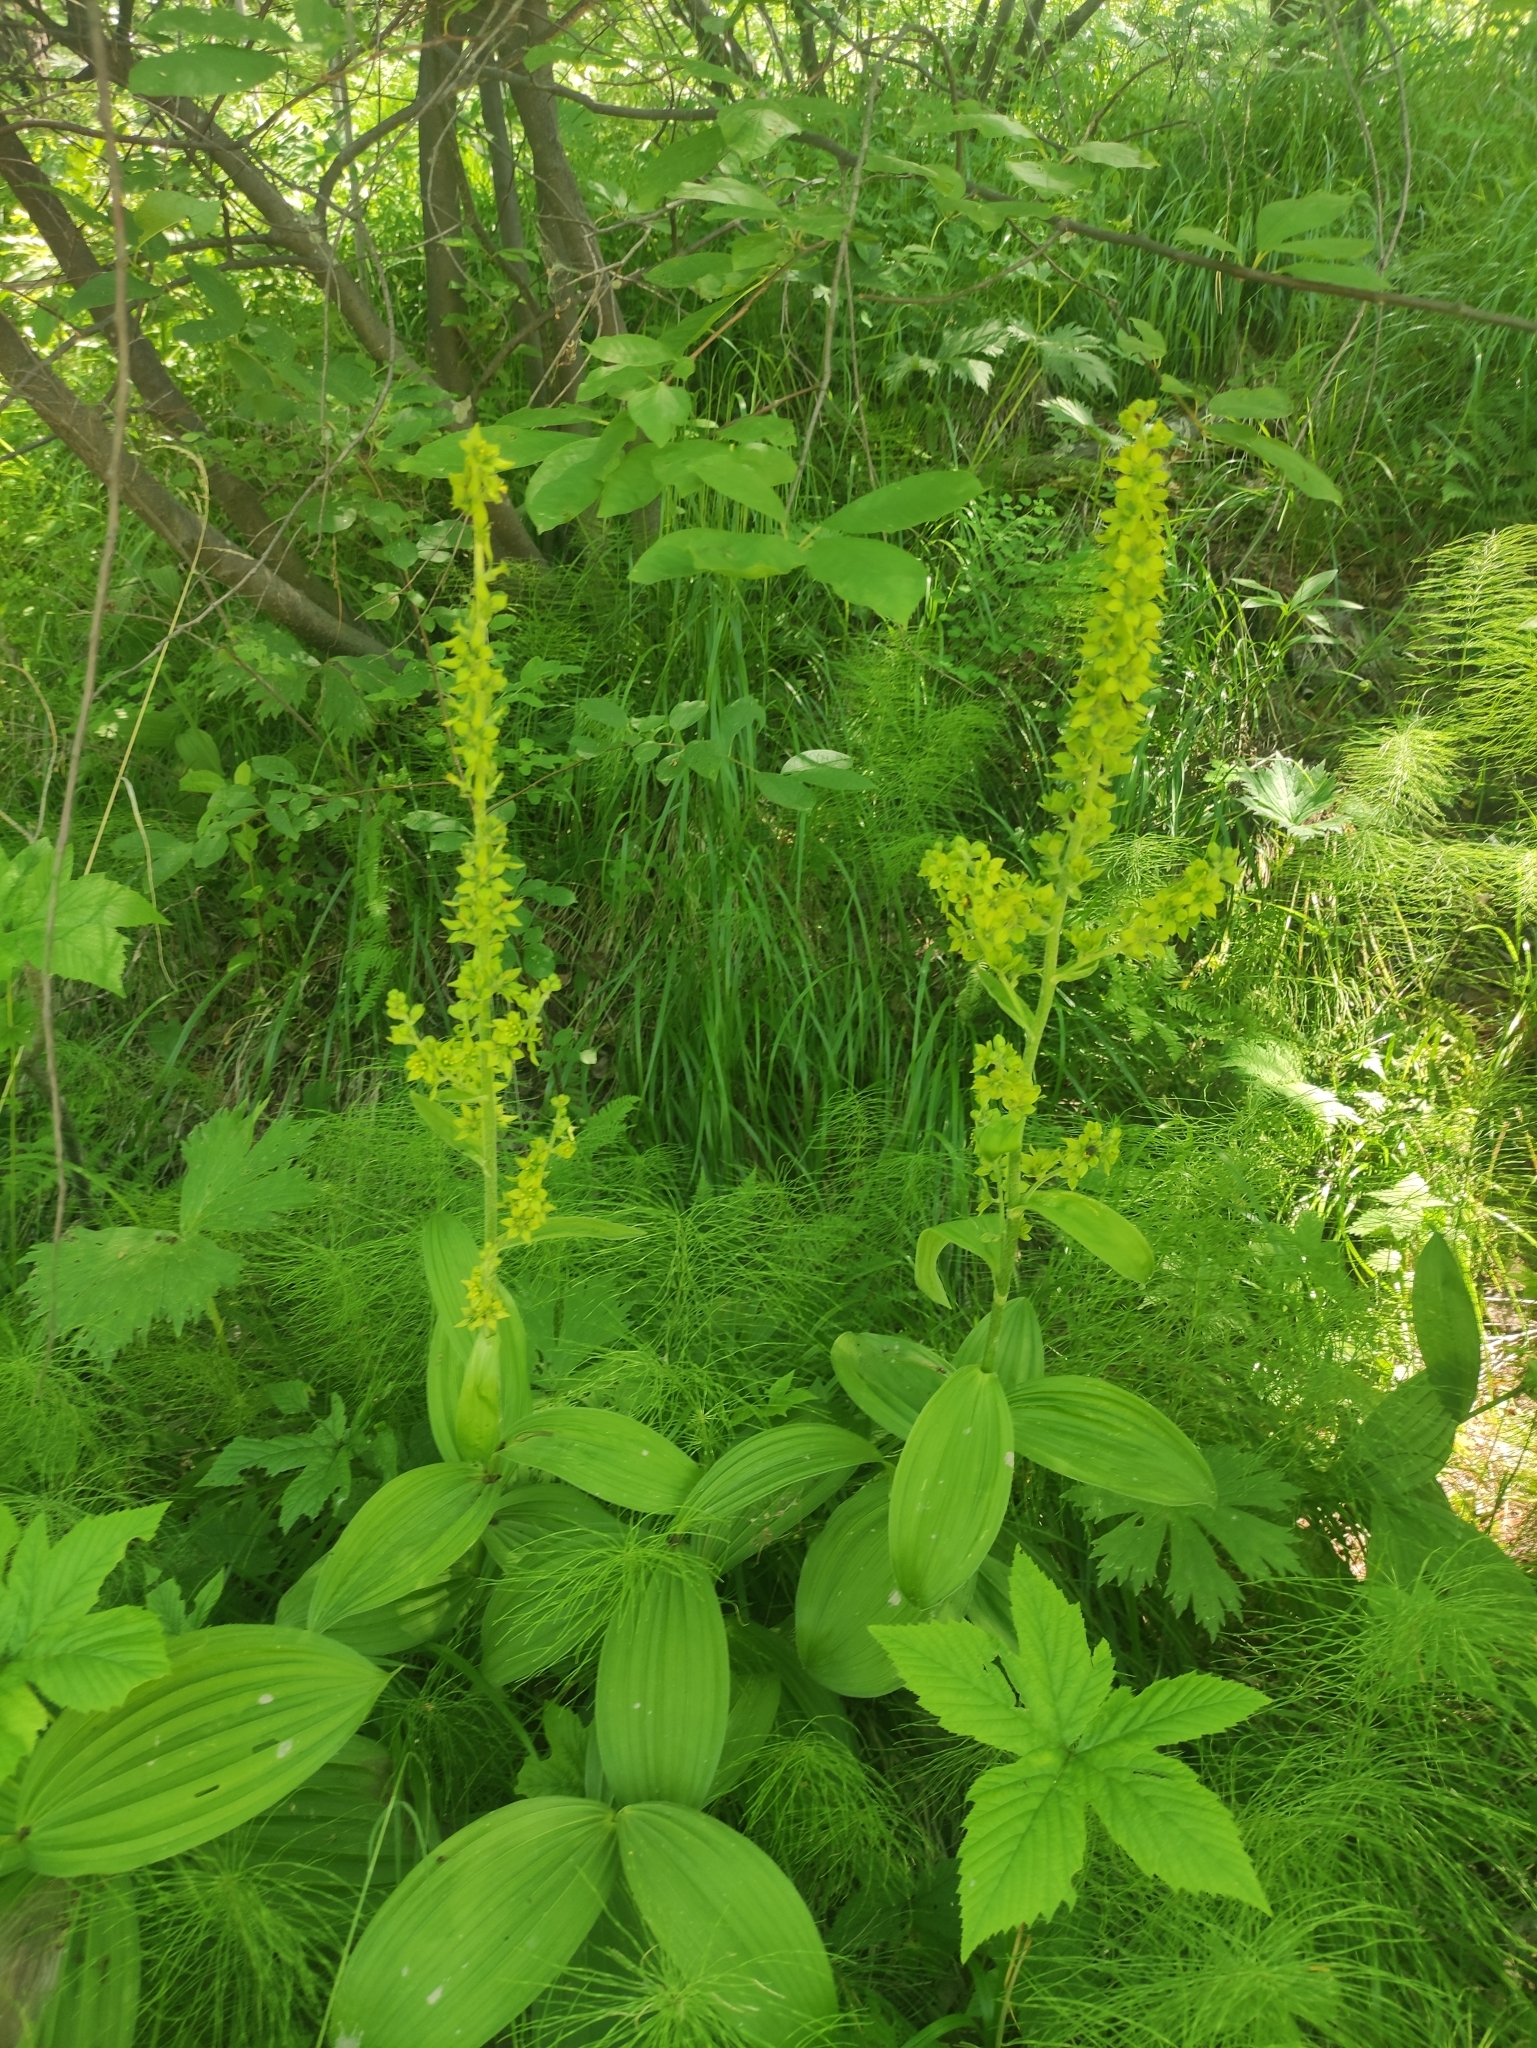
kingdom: Plantae
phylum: Tracheophyta
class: Liliopsida
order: Liliales
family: Melanthiaceae
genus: Veratrum
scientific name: Veratrum lobelianum
